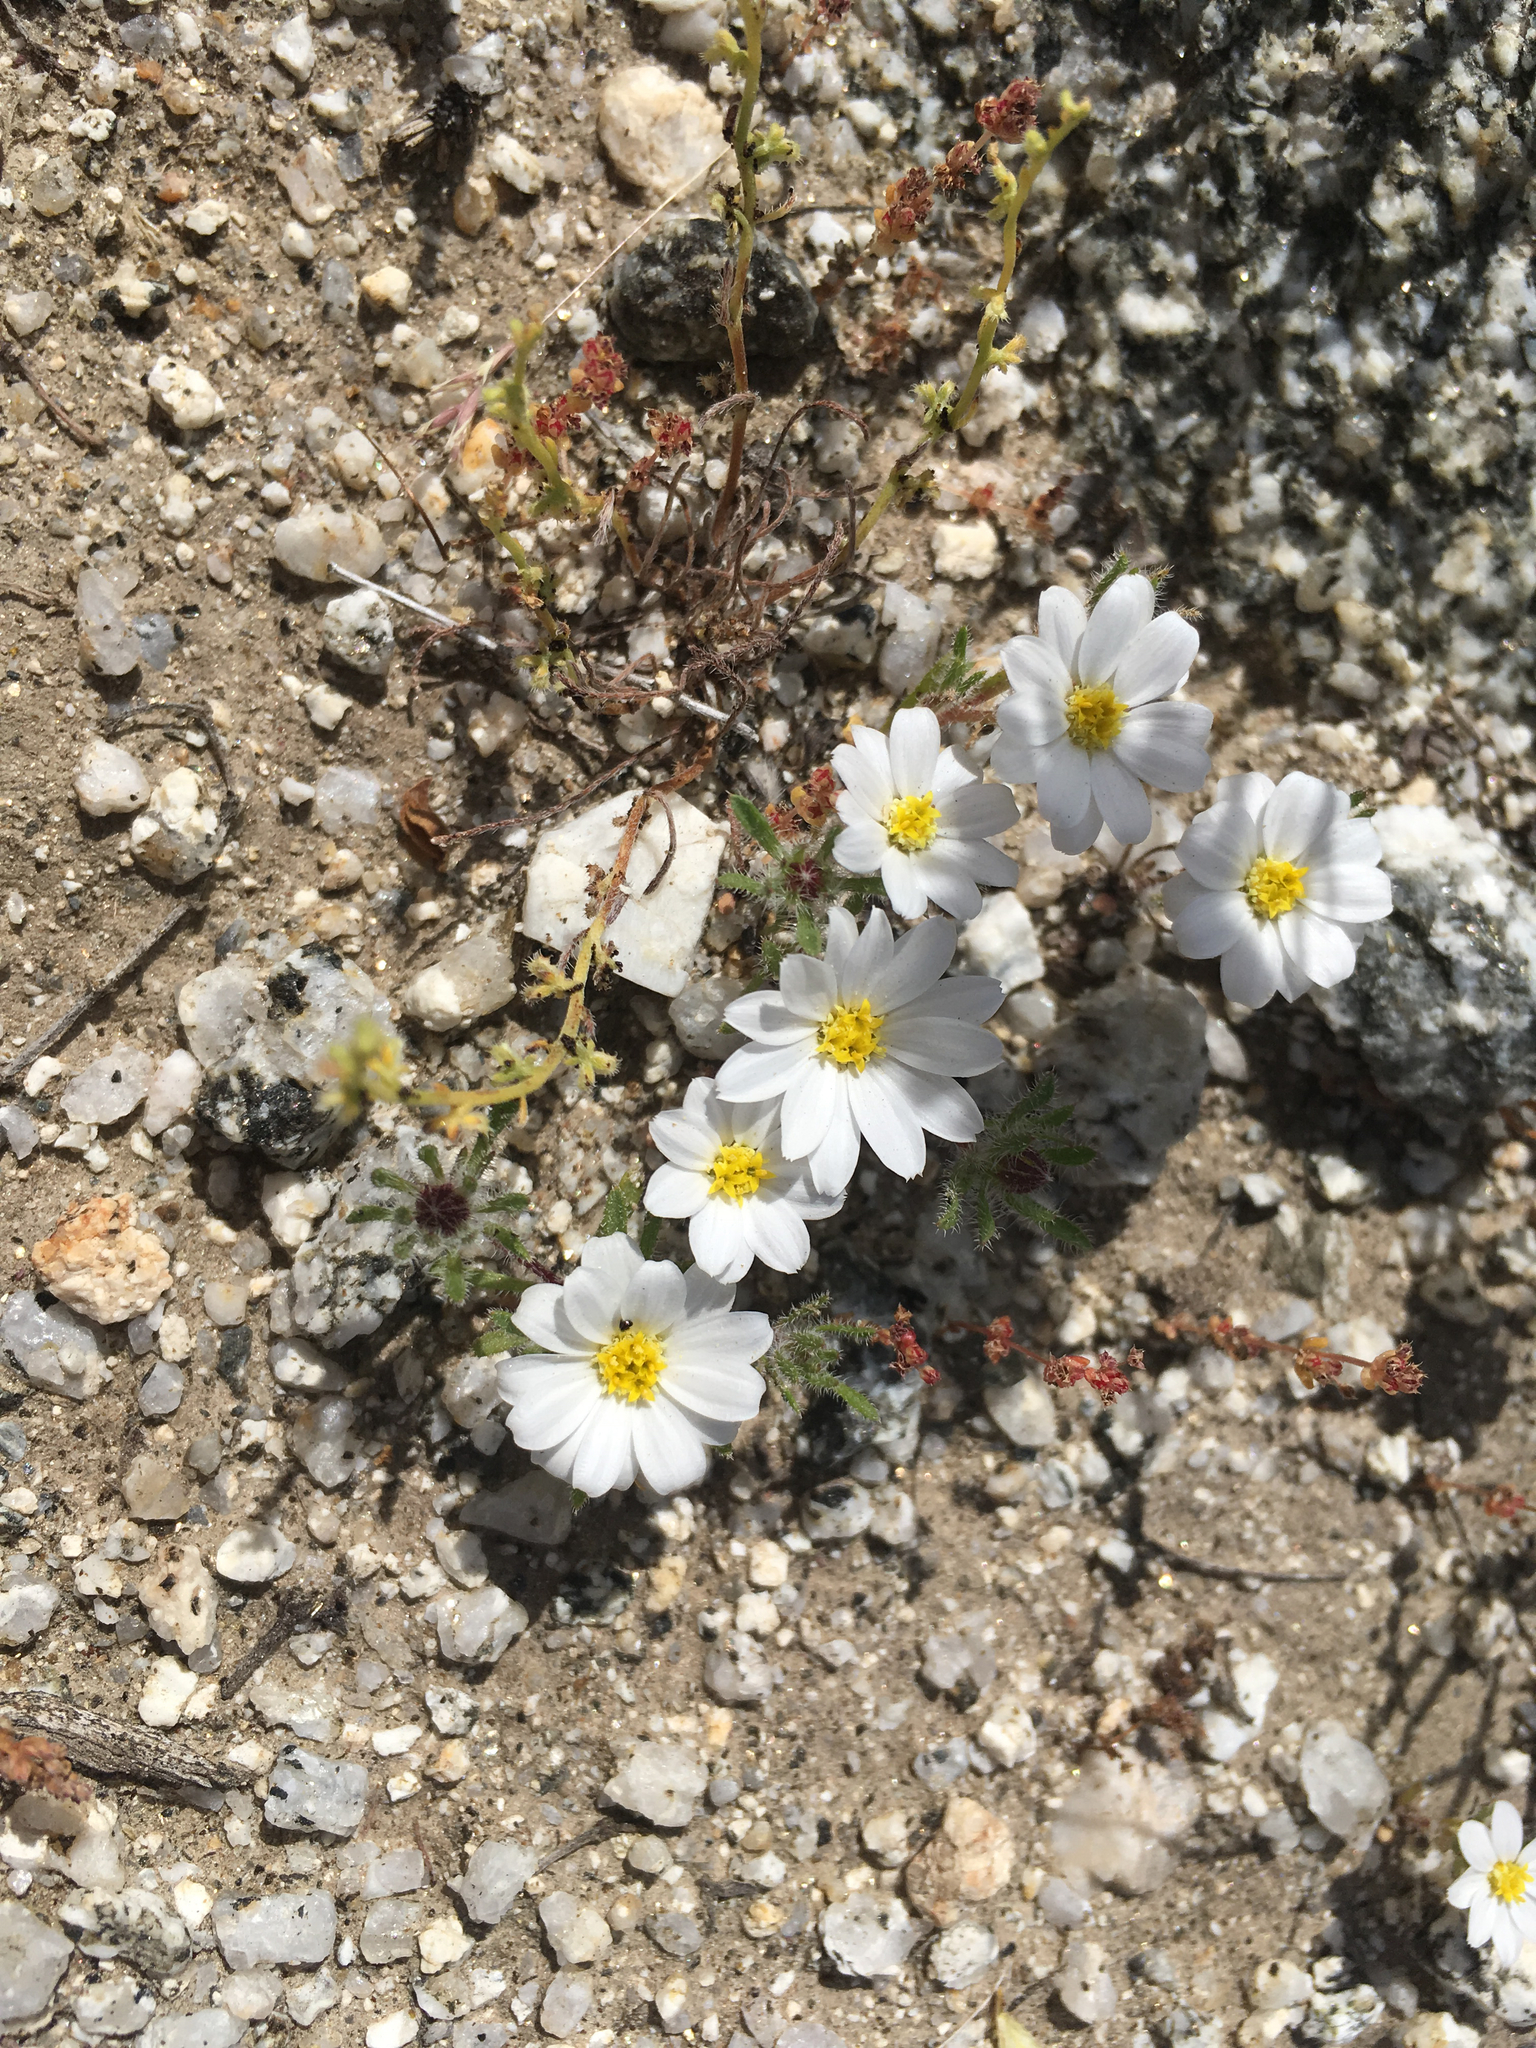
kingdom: Plantae
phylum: Tracheophyta
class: Magnoliopsida
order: Asterales
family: Asteraceae
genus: Monoptilon
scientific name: Monoptilon bellioides
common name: Bristly desertstar
